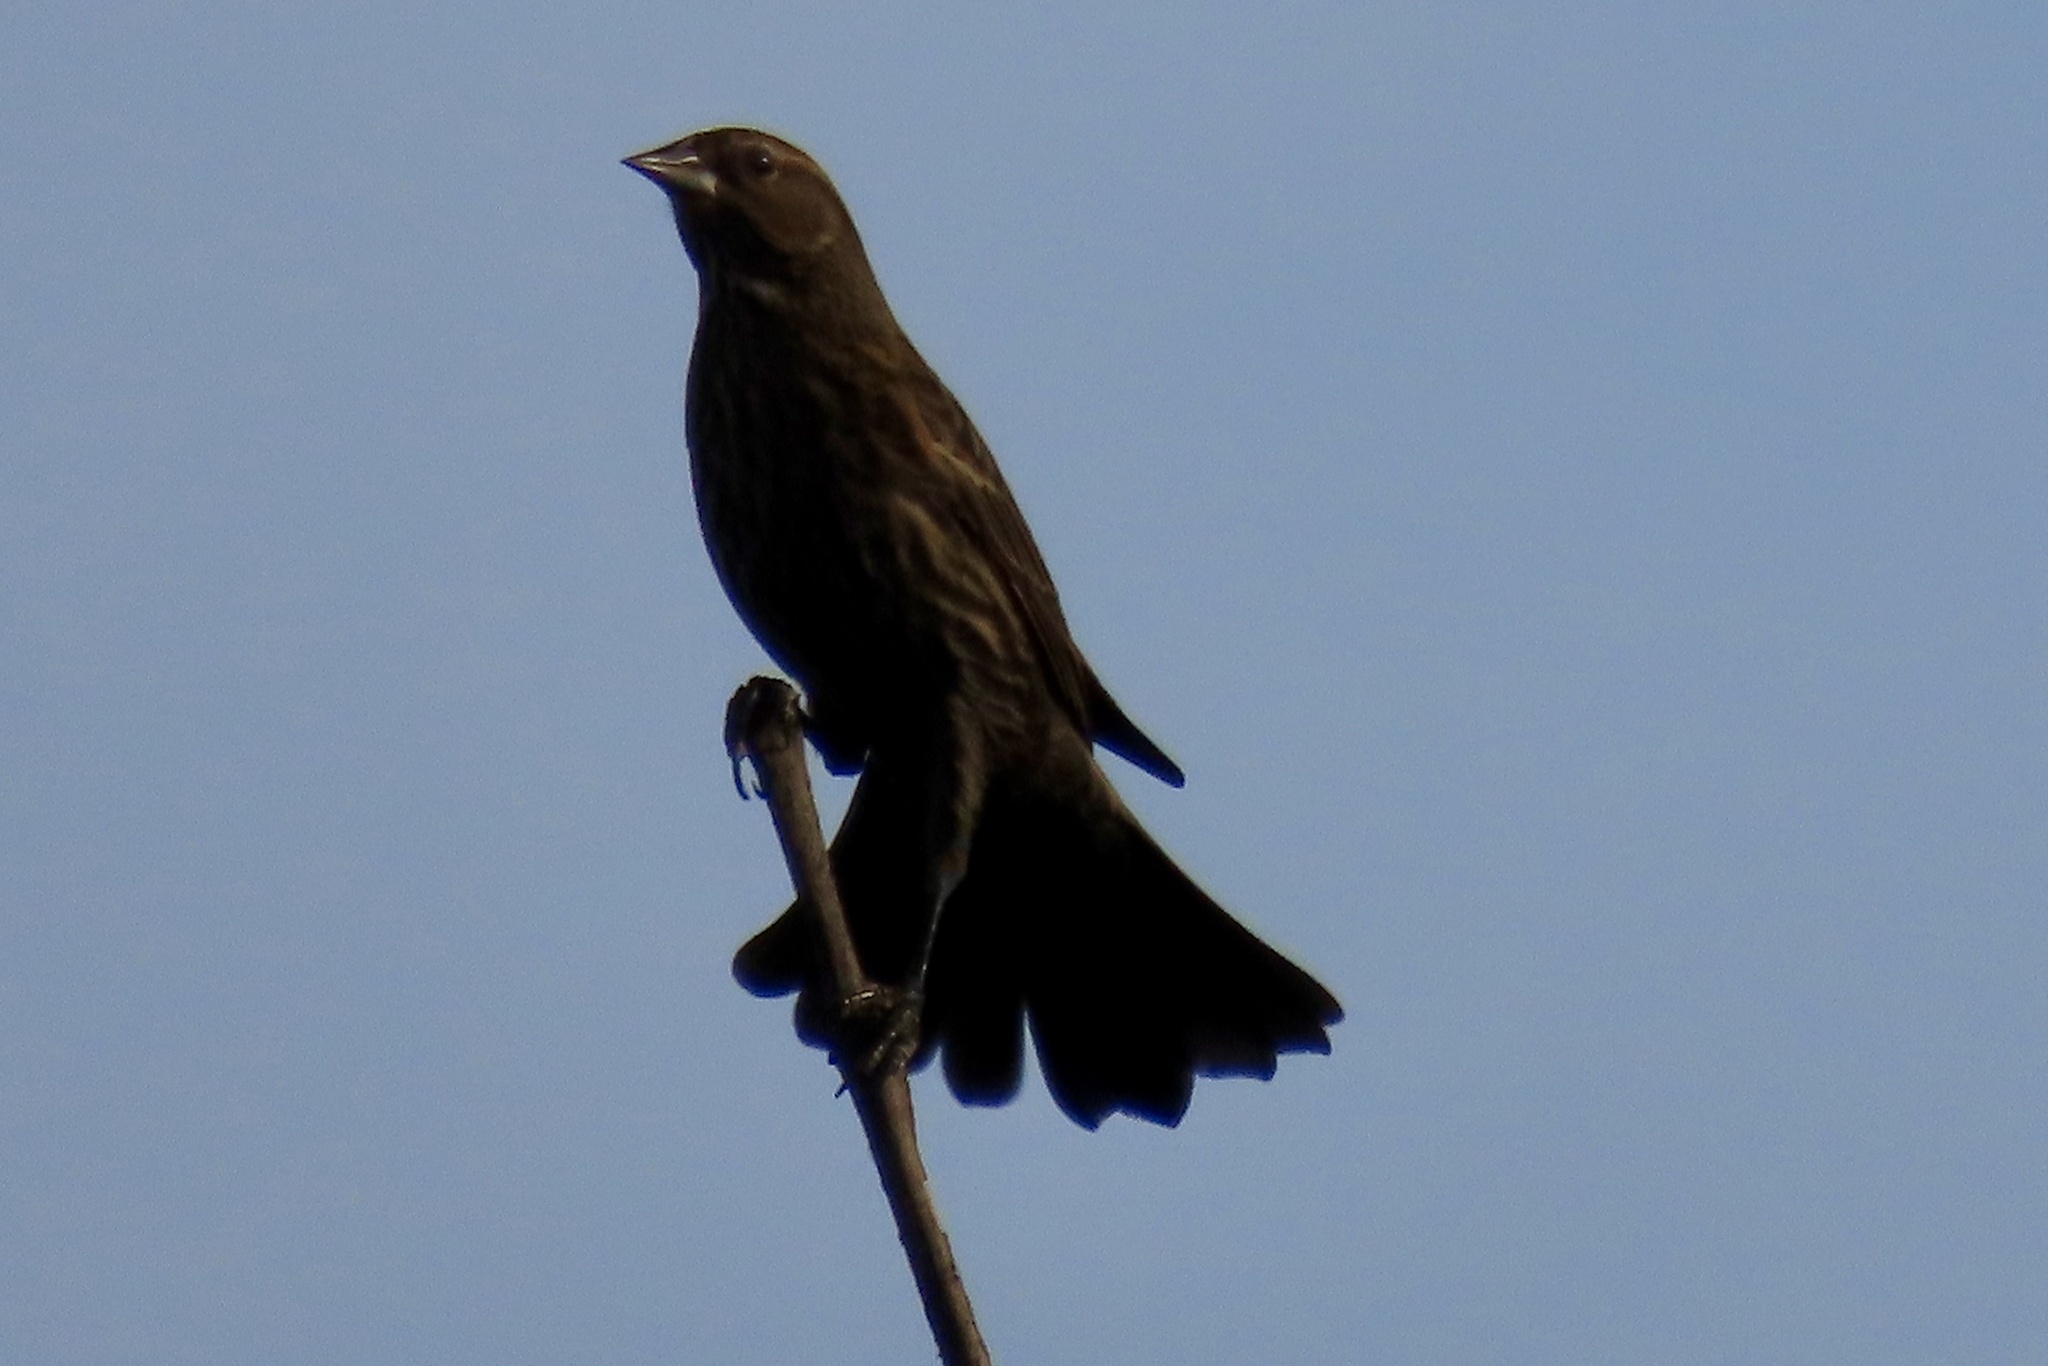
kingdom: Animalia
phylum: Chordata
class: Aves
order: Passeriformes
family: Icteridae
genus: Agelaius
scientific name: Agelaius phoeniceus
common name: Red-winged blackbird
